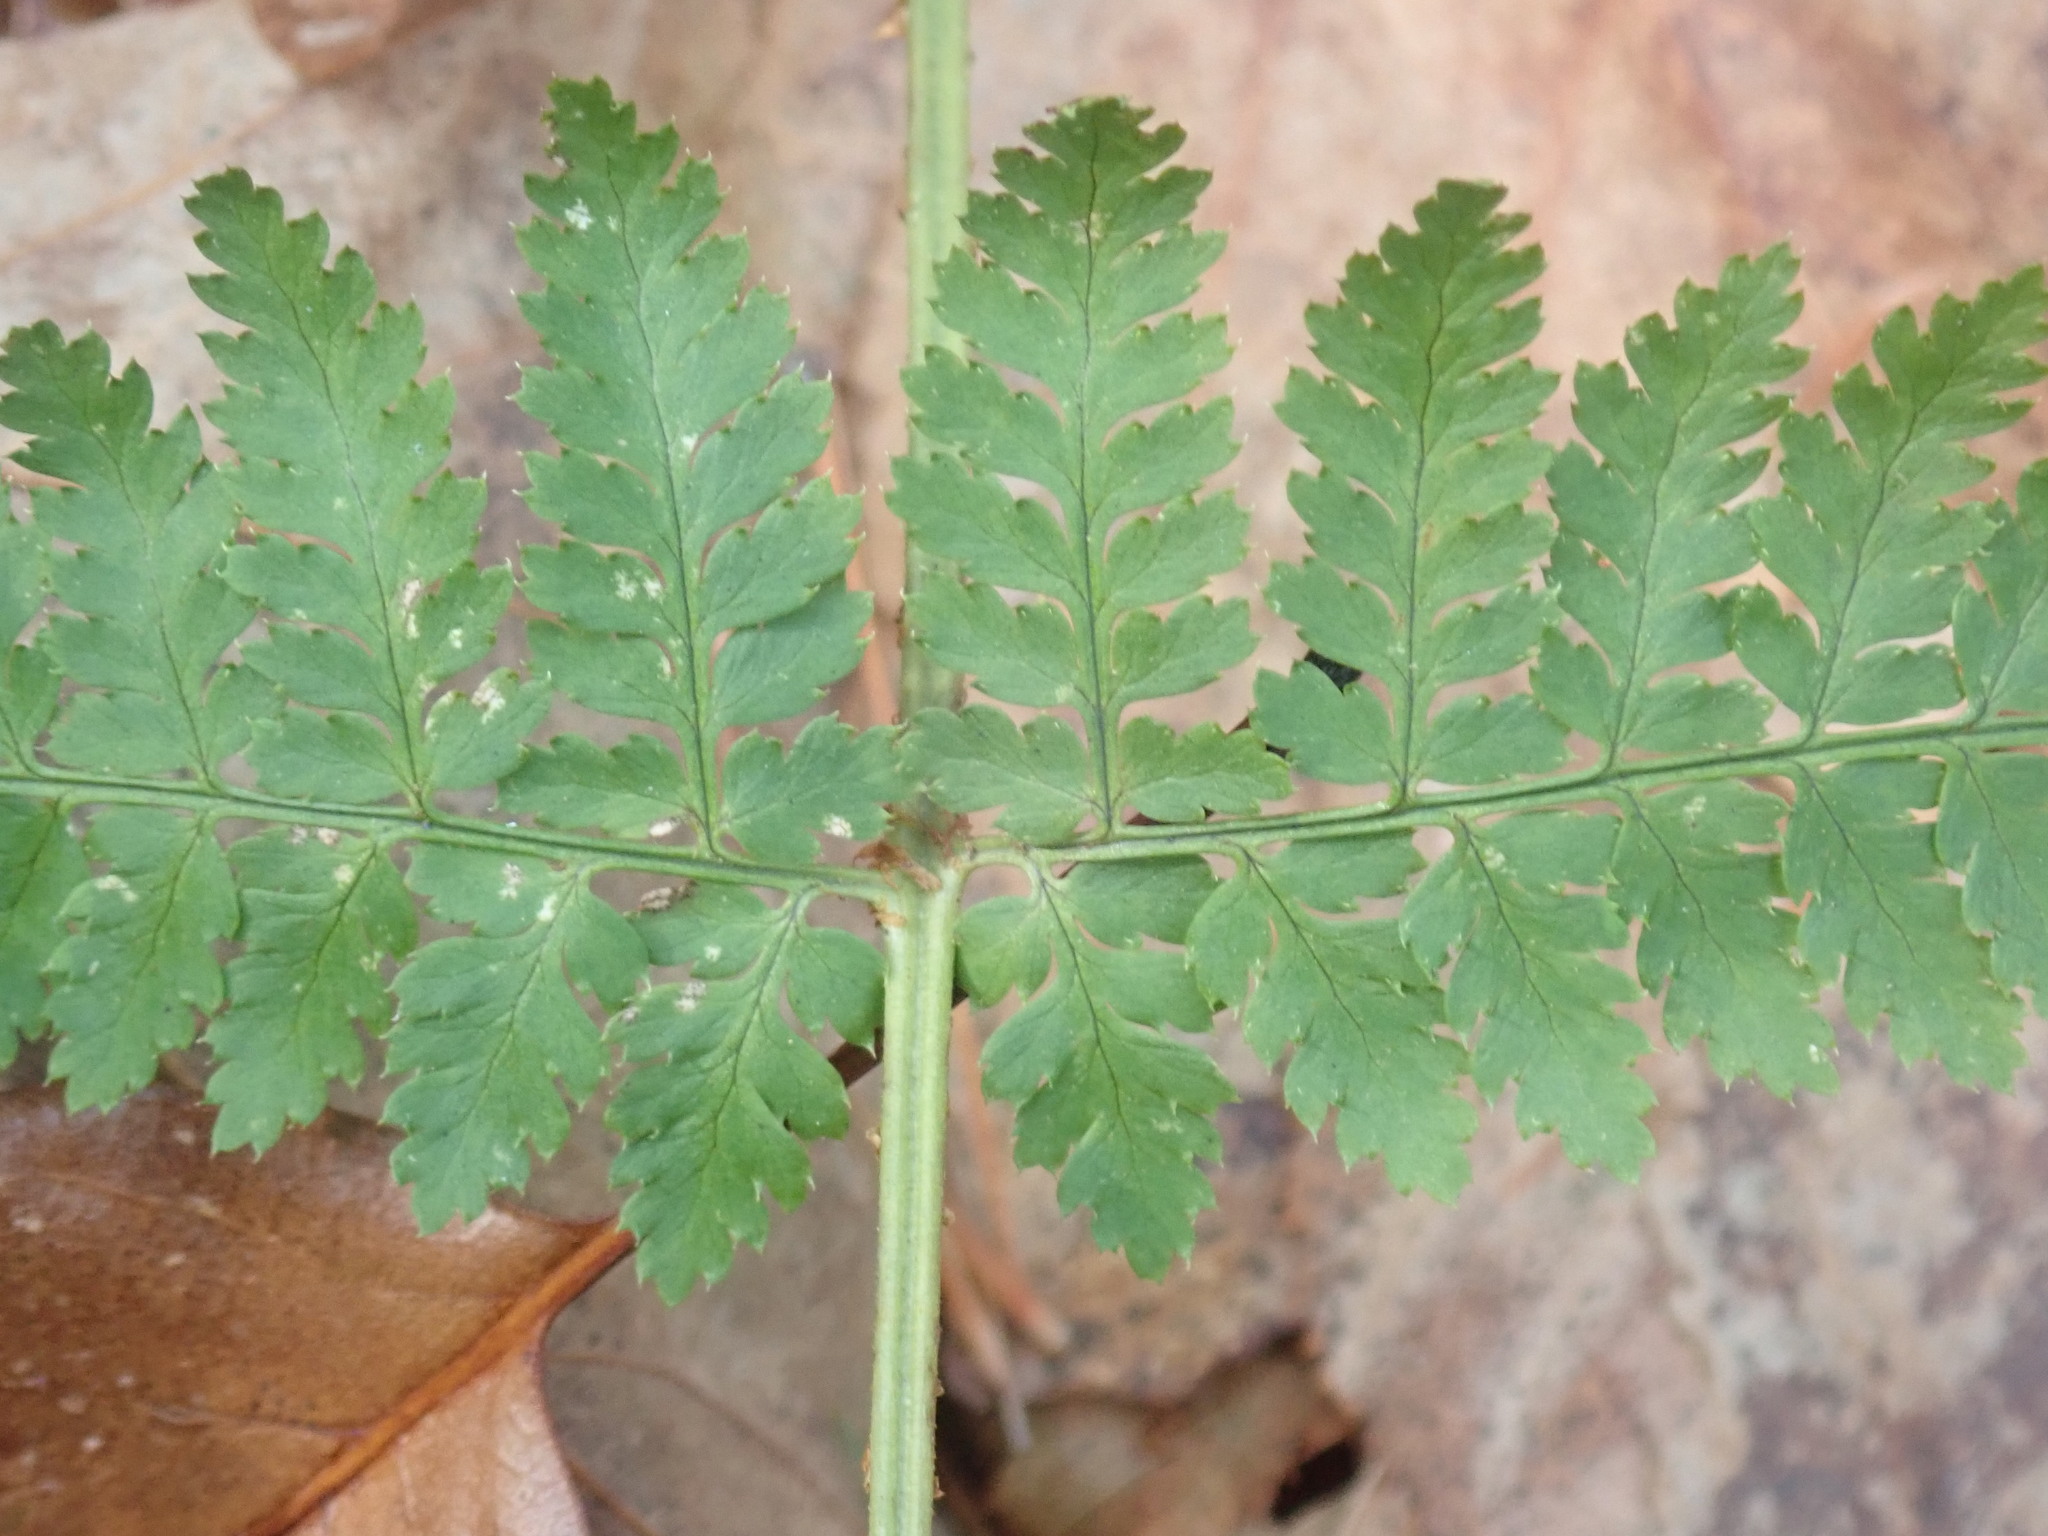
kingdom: Plantae
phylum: Tracheophyta
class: Polypodiopsida
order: Polypodiales
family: Dryopteridaceae
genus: Dryopteris
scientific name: Dryopteris intermedia
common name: Evergreen wood fern
